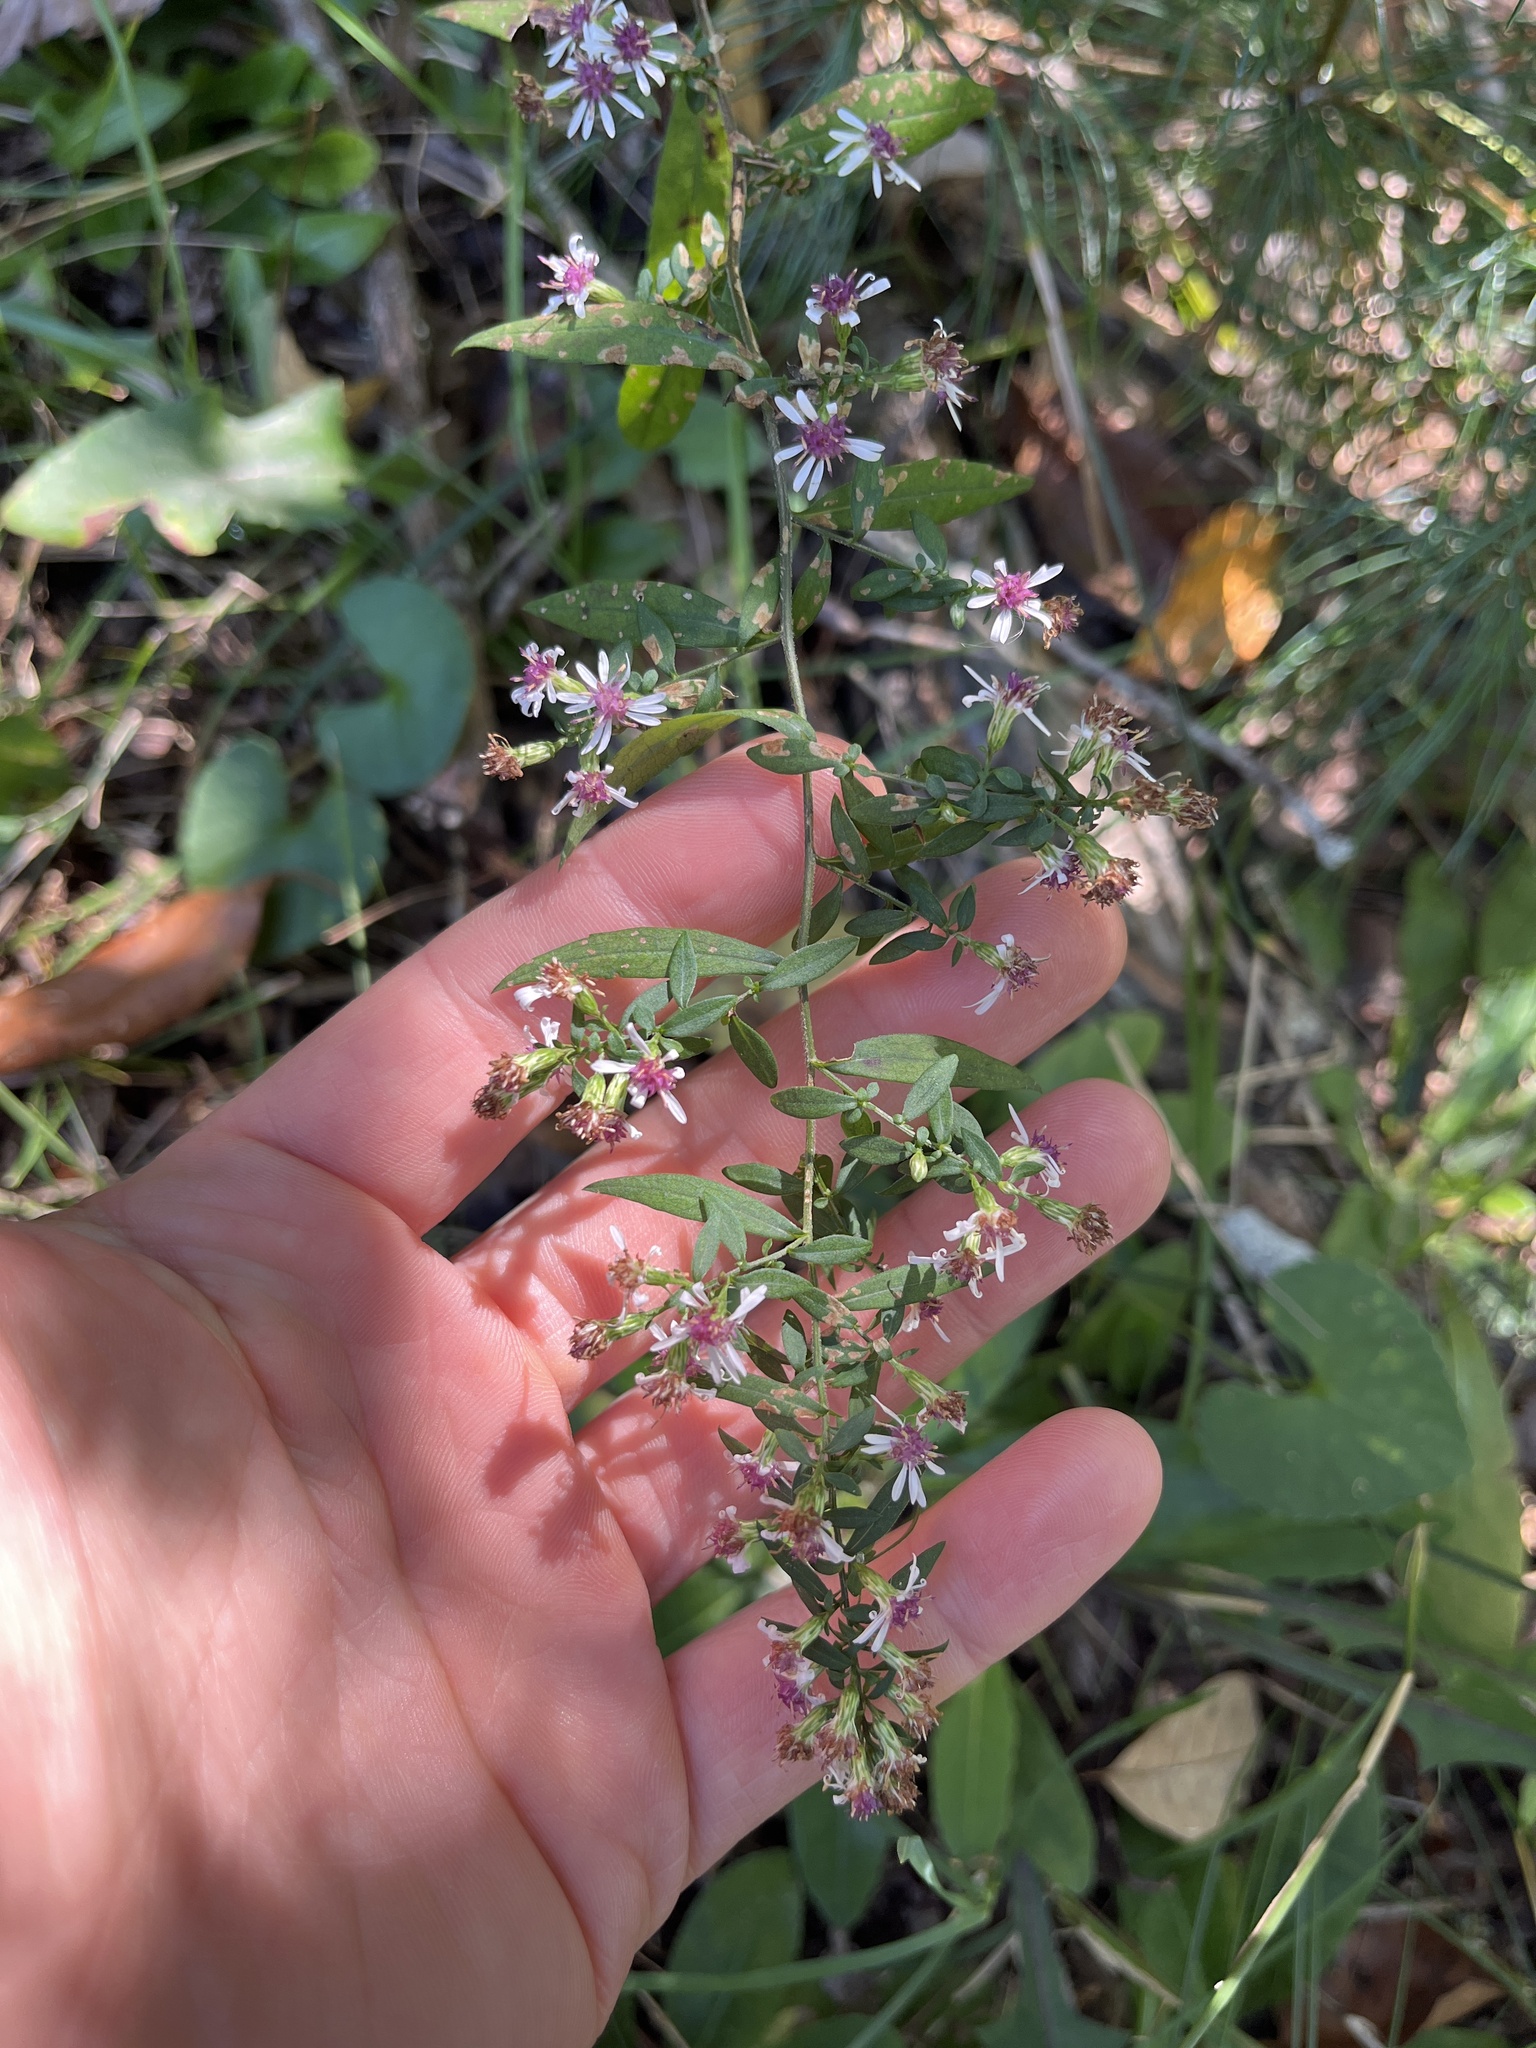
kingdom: Plantae
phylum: Tracheophyta
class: Magnoliopsida
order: Asterales
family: Asteraceae
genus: Symphyotrichum
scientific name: Symphyotrichum lateriflorum
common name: Calico aster
